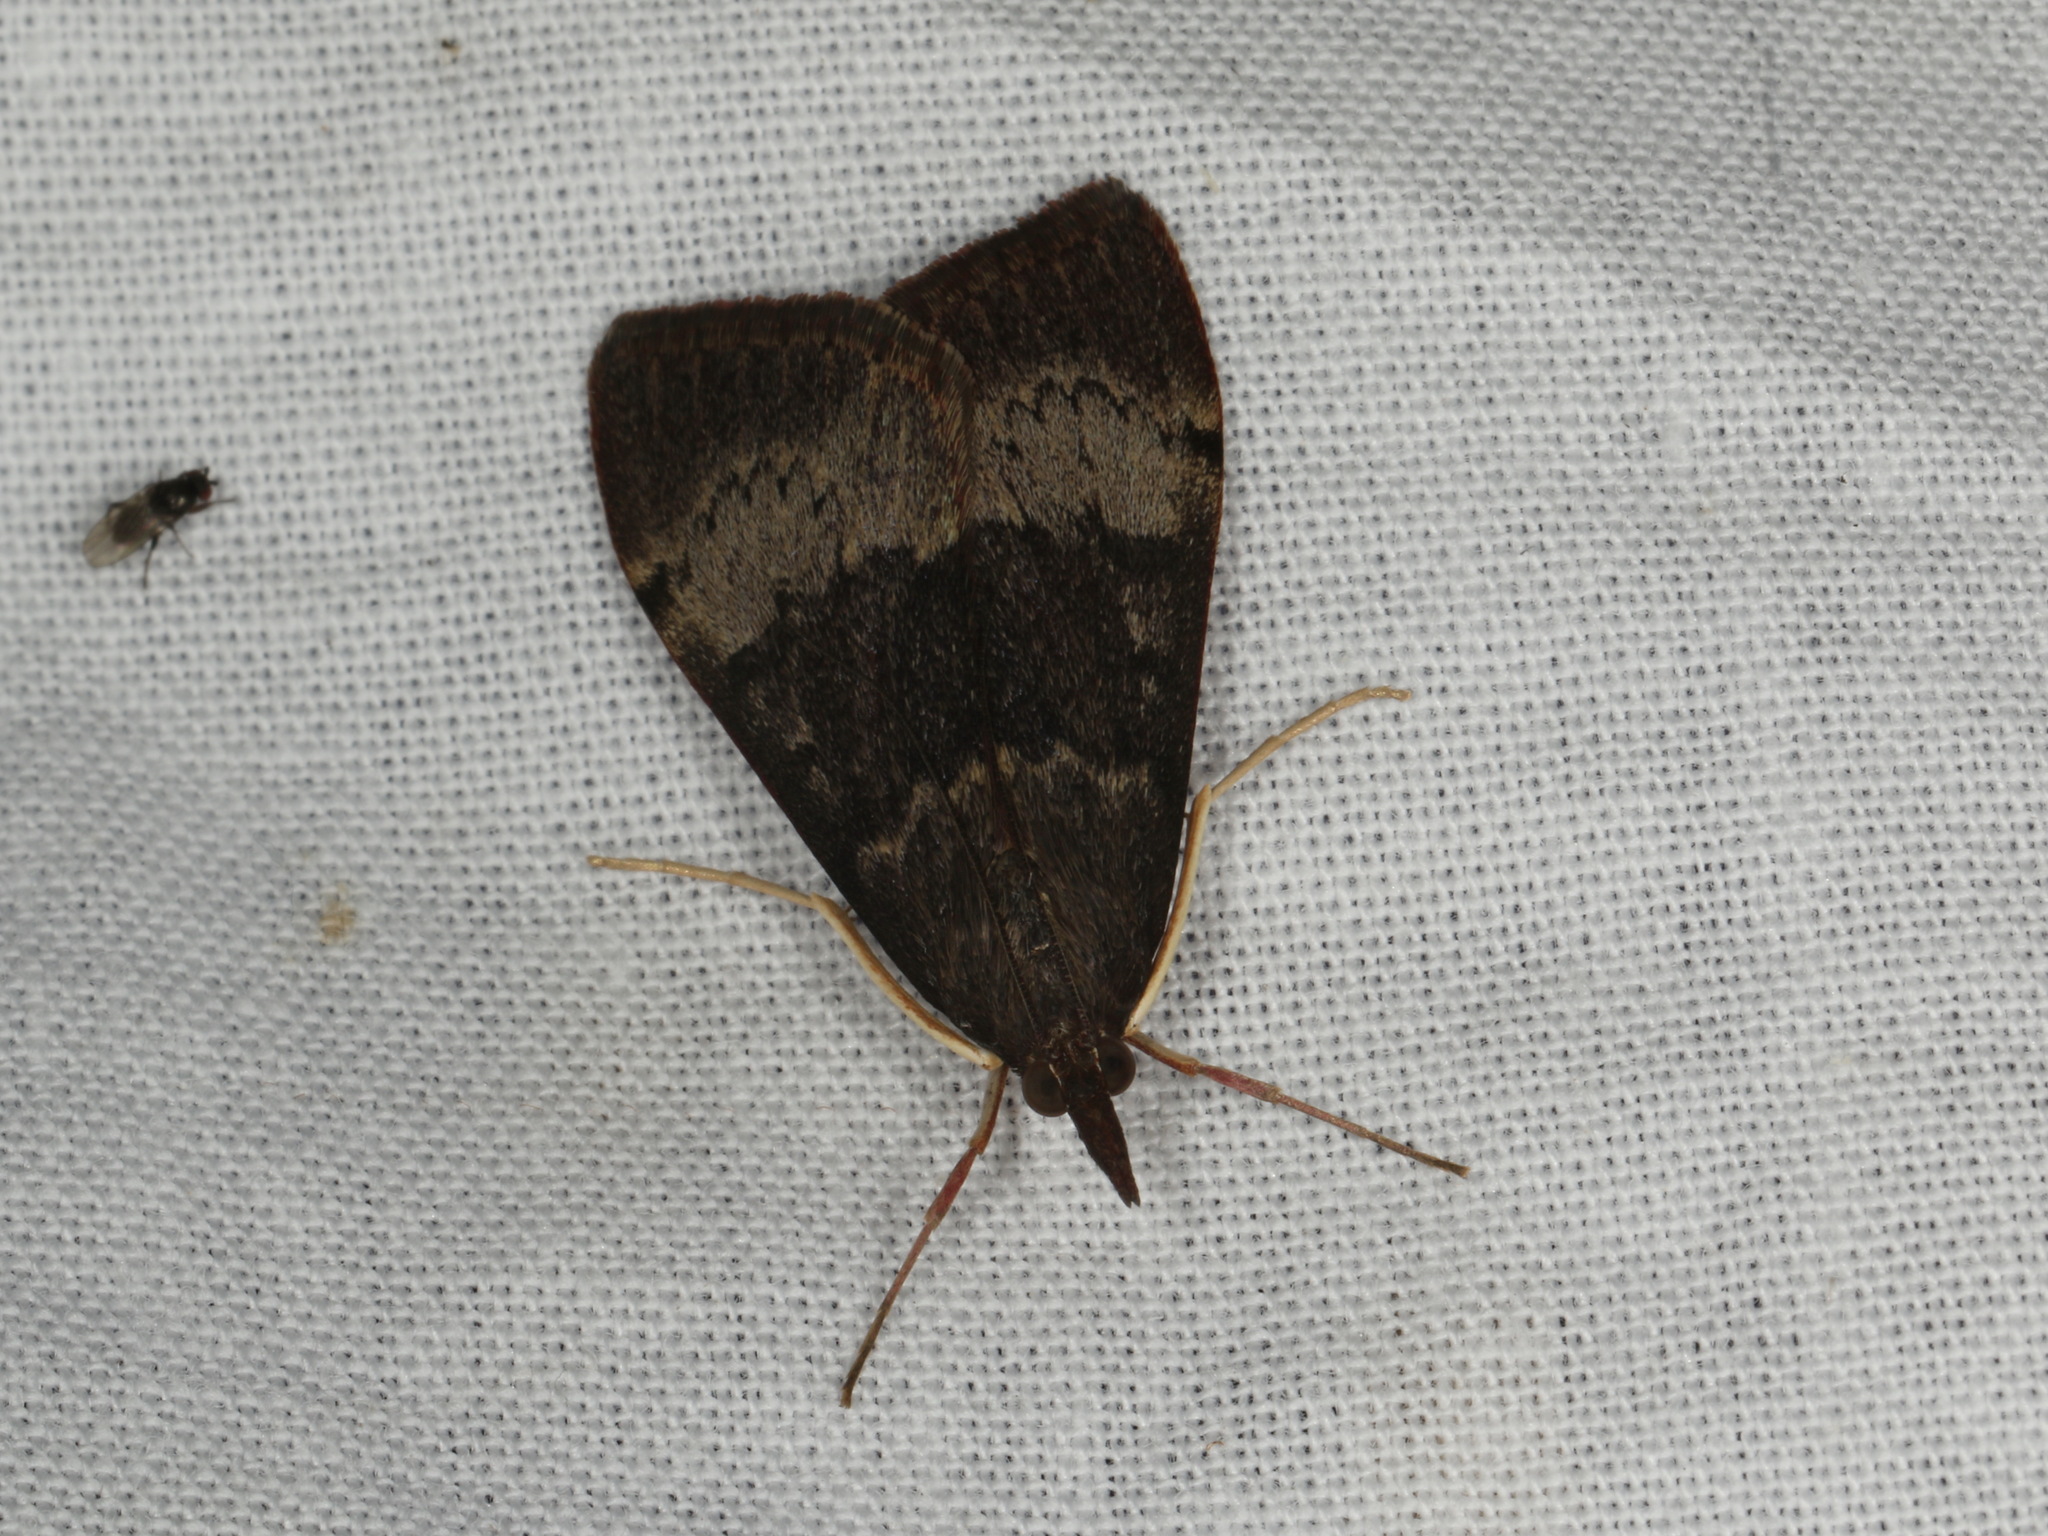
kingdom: Animalia
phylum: Arthropoda
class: Insecta
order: Lepidoptera
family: Crambidae
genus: Uresiphita
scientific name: Uresiphita ornithopteralis
